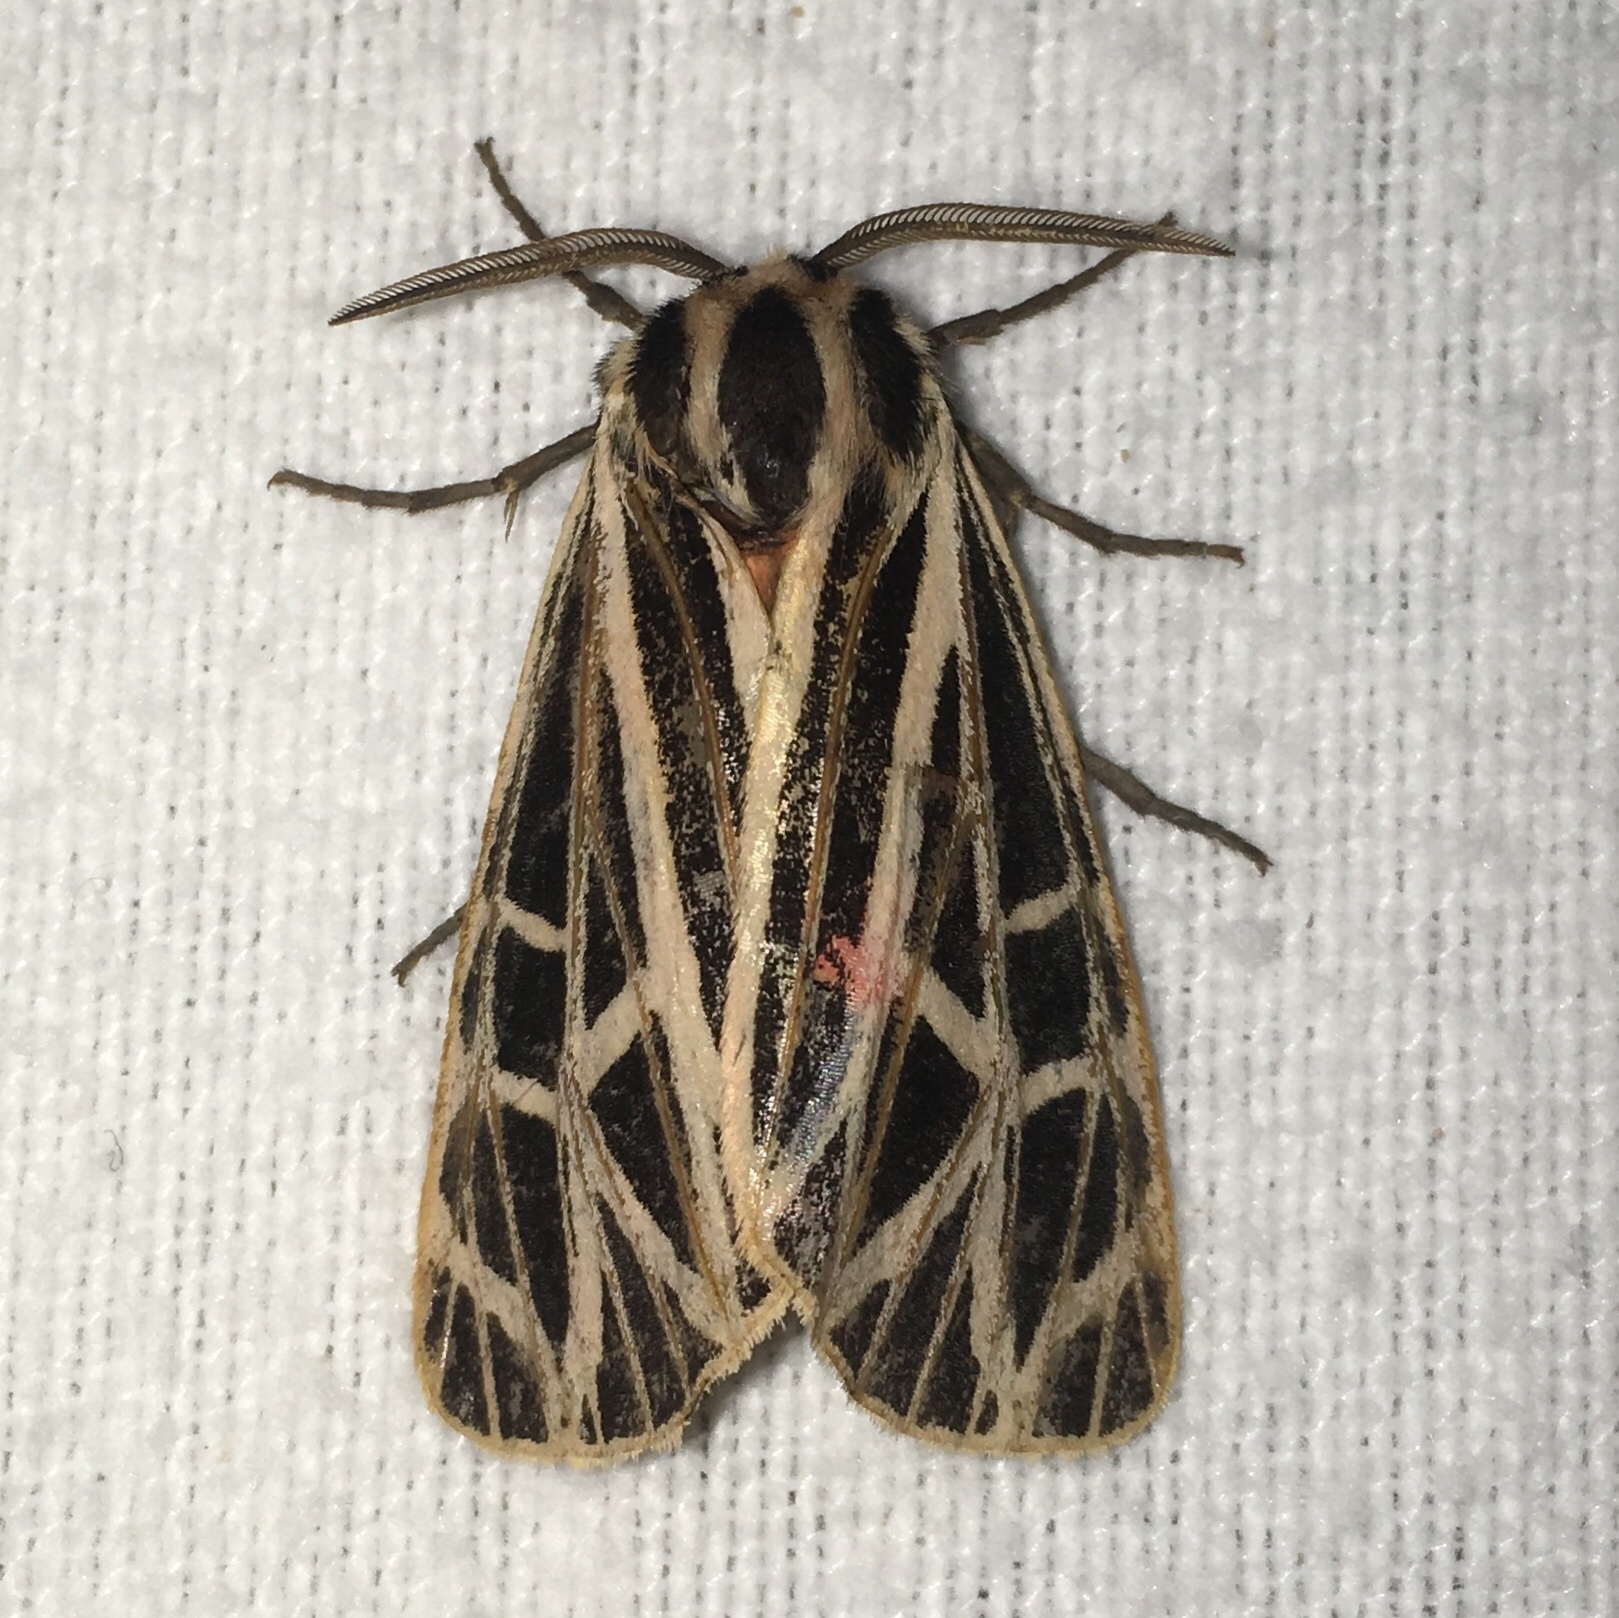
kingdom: Animalia
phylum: Arthropoda
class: Insecta
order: Lepidoptera
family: Erebidae
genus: Grammia
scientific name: Grammia virgo
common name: Virgin tiger moth
